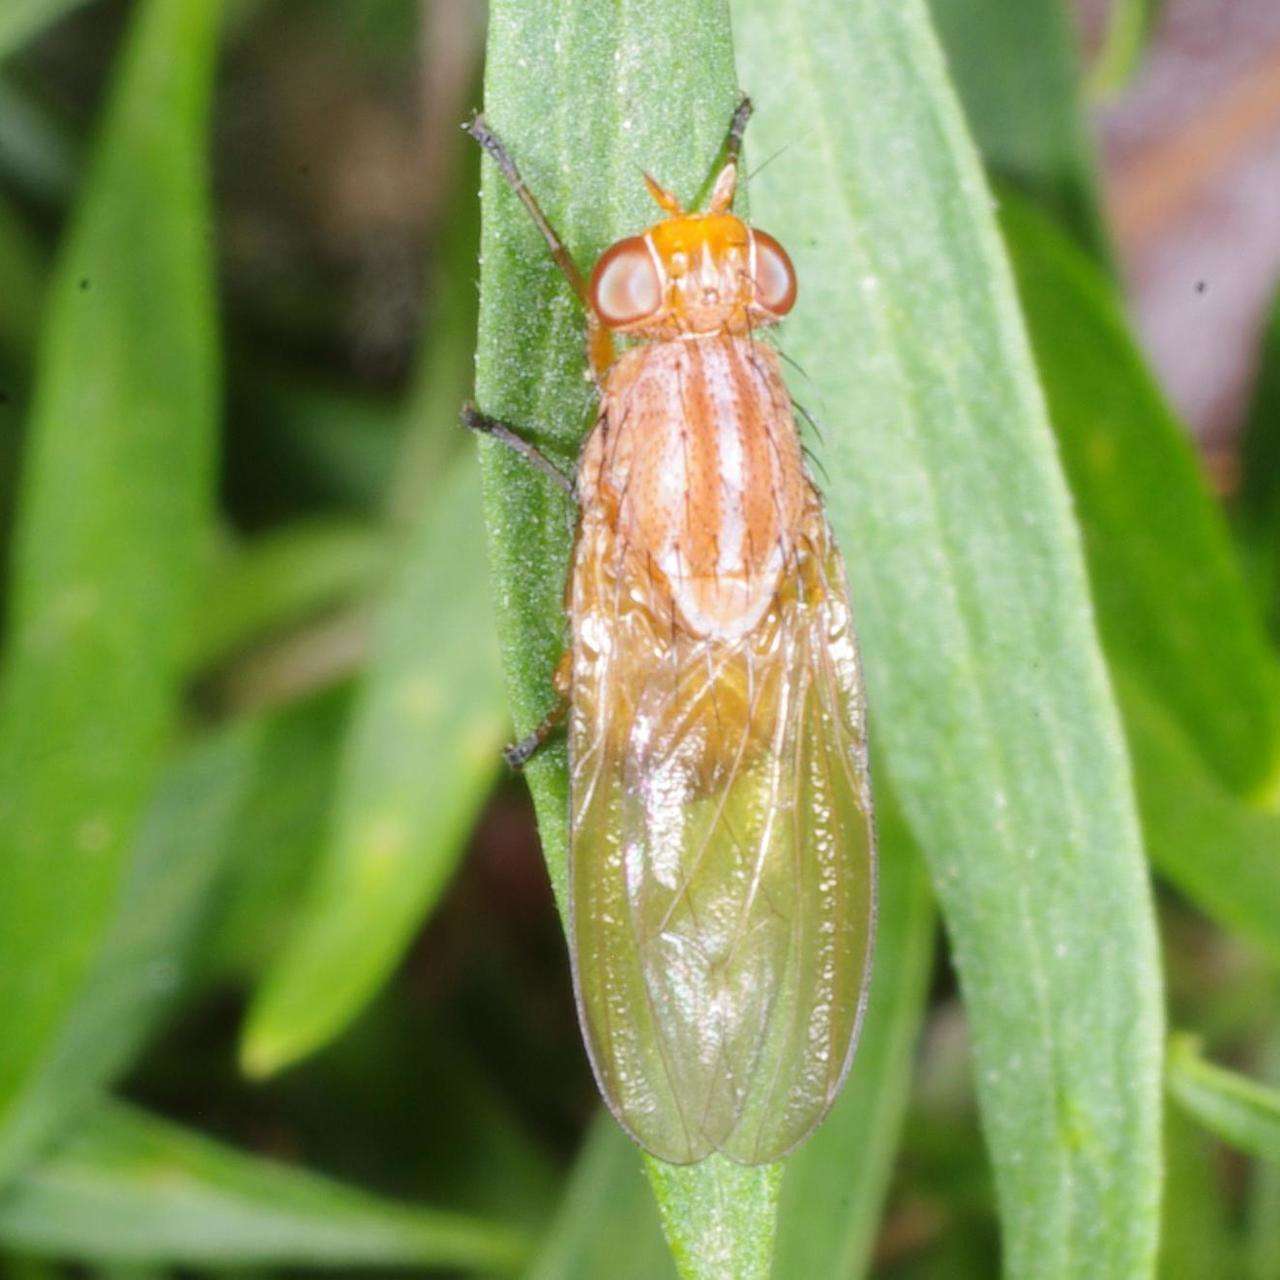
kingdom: Animalia
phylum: Arthropoda
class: Insecta
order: Diptera
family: Lauxaniidae
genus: Meiosimyza
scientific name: Meiosimyza
